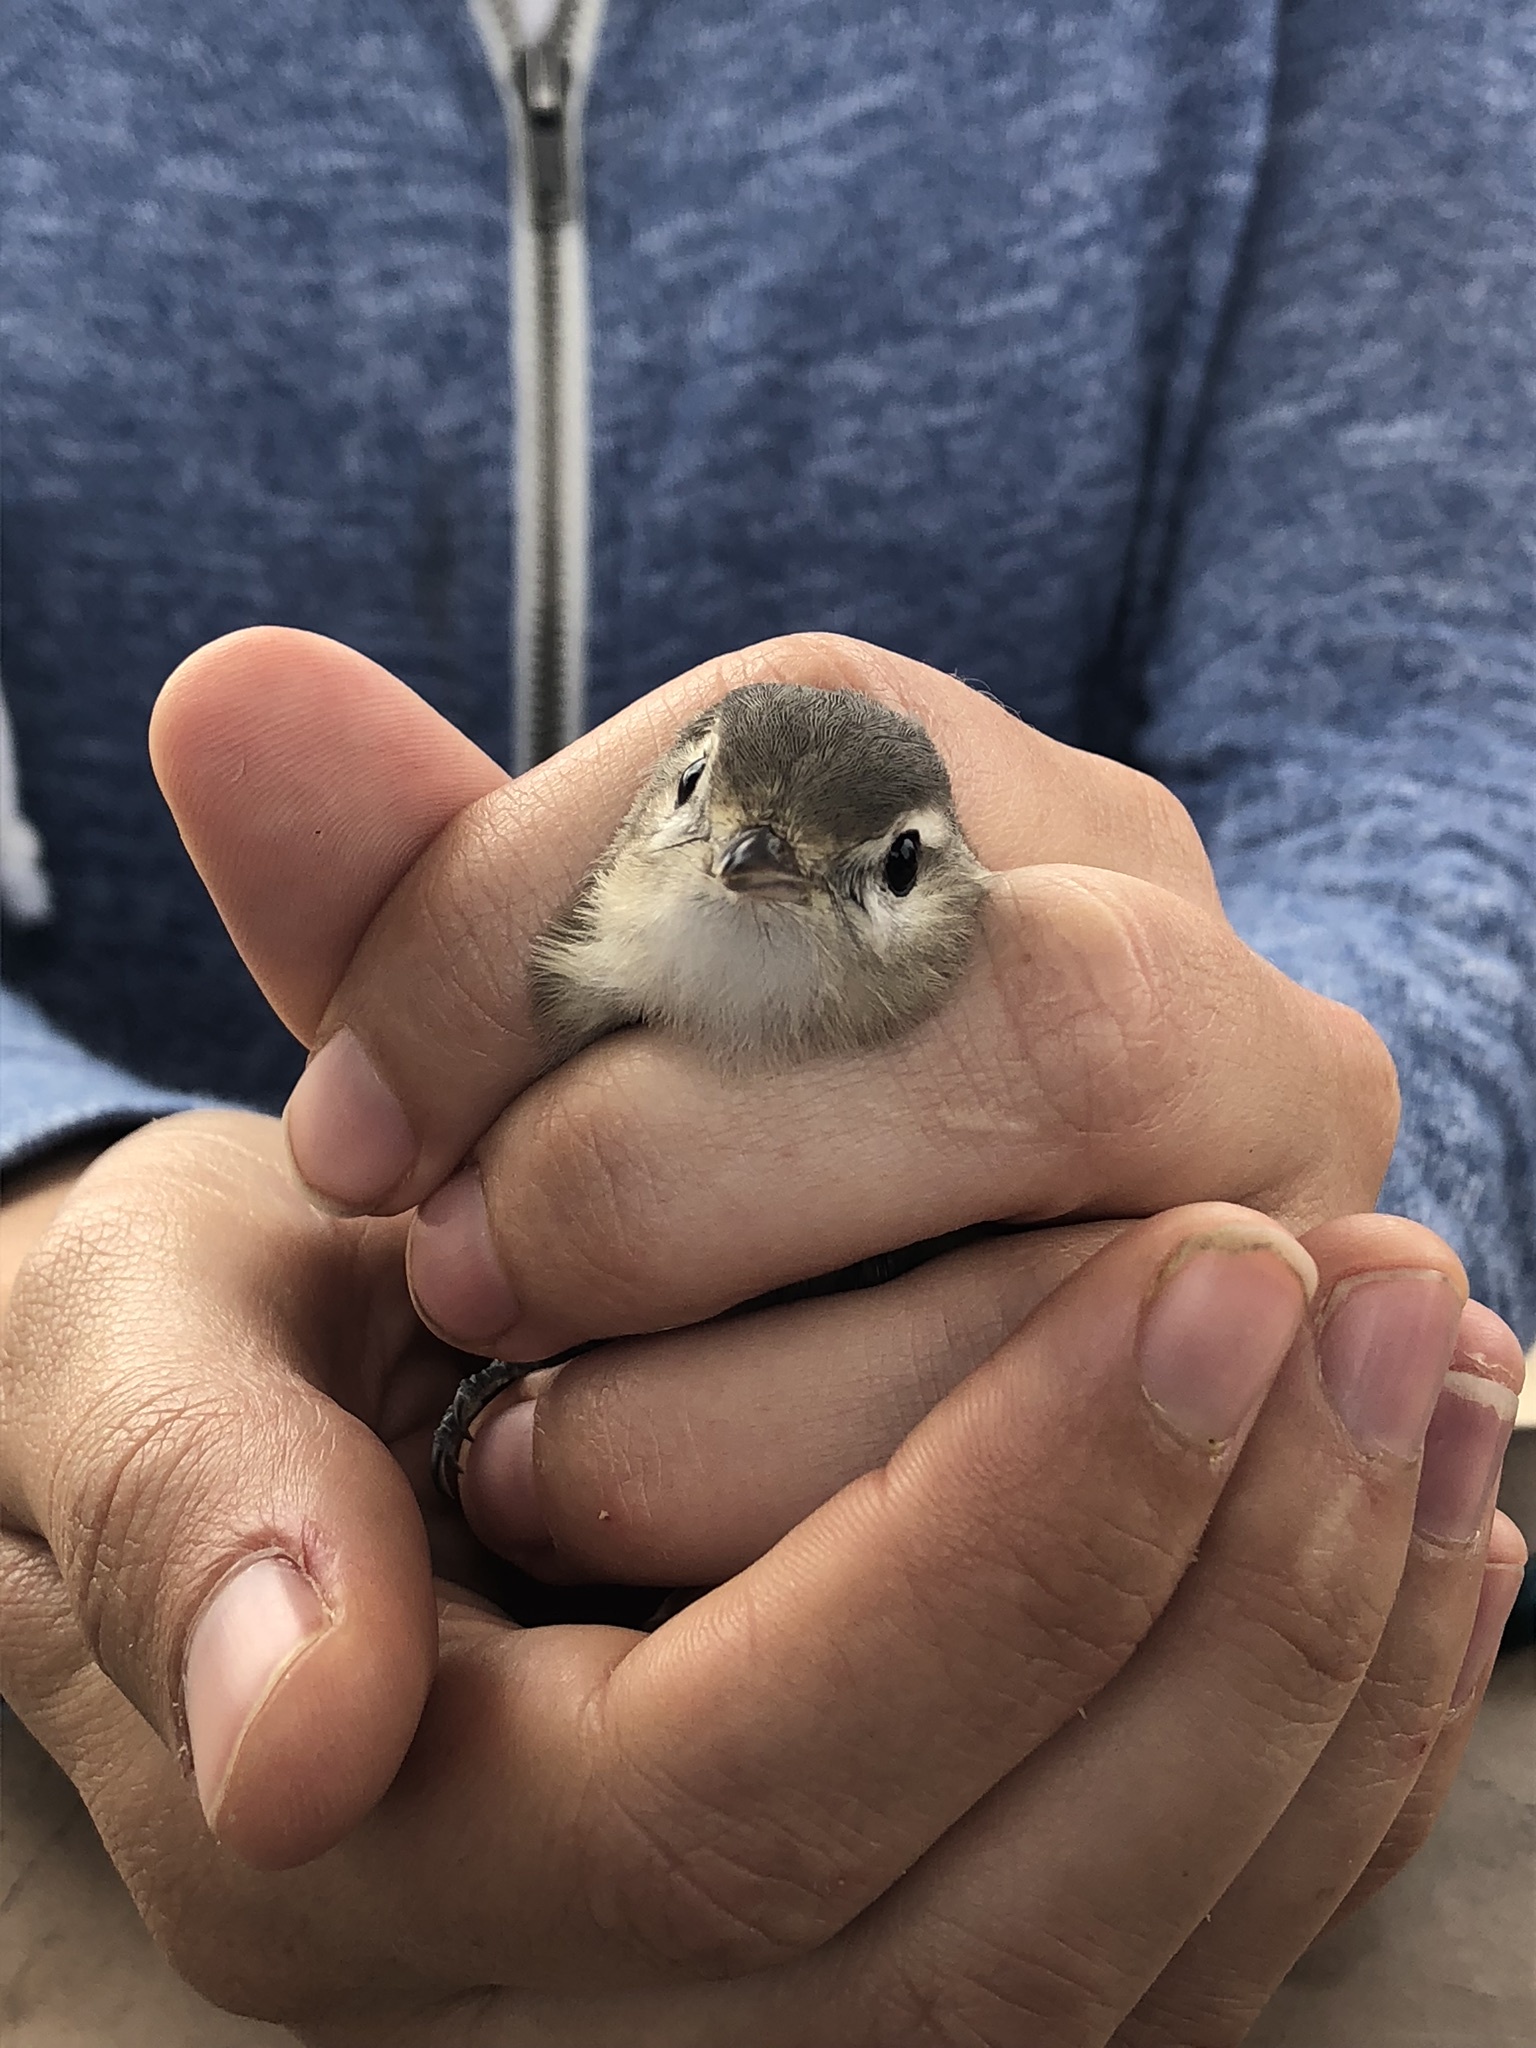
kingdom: Animalia
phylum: Chordata
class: Aves
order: Passeriformes
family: Vireonidae
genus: Vireo
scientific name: Vireo gilvus
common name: Warbling vireo
